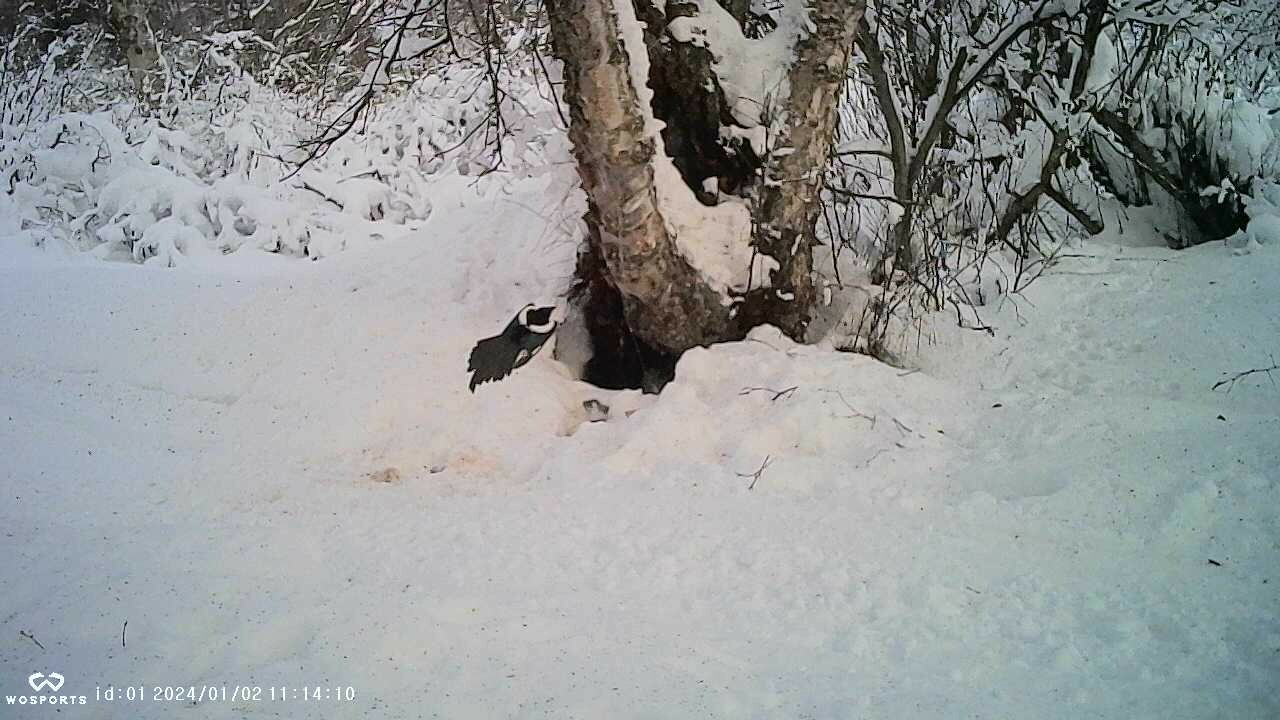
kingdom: Animalia
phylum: Chordata
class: Aves
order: Passeriformes
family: Corvidae
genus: Pica
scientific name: Pica hudsonia
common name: Black-billed magpie
